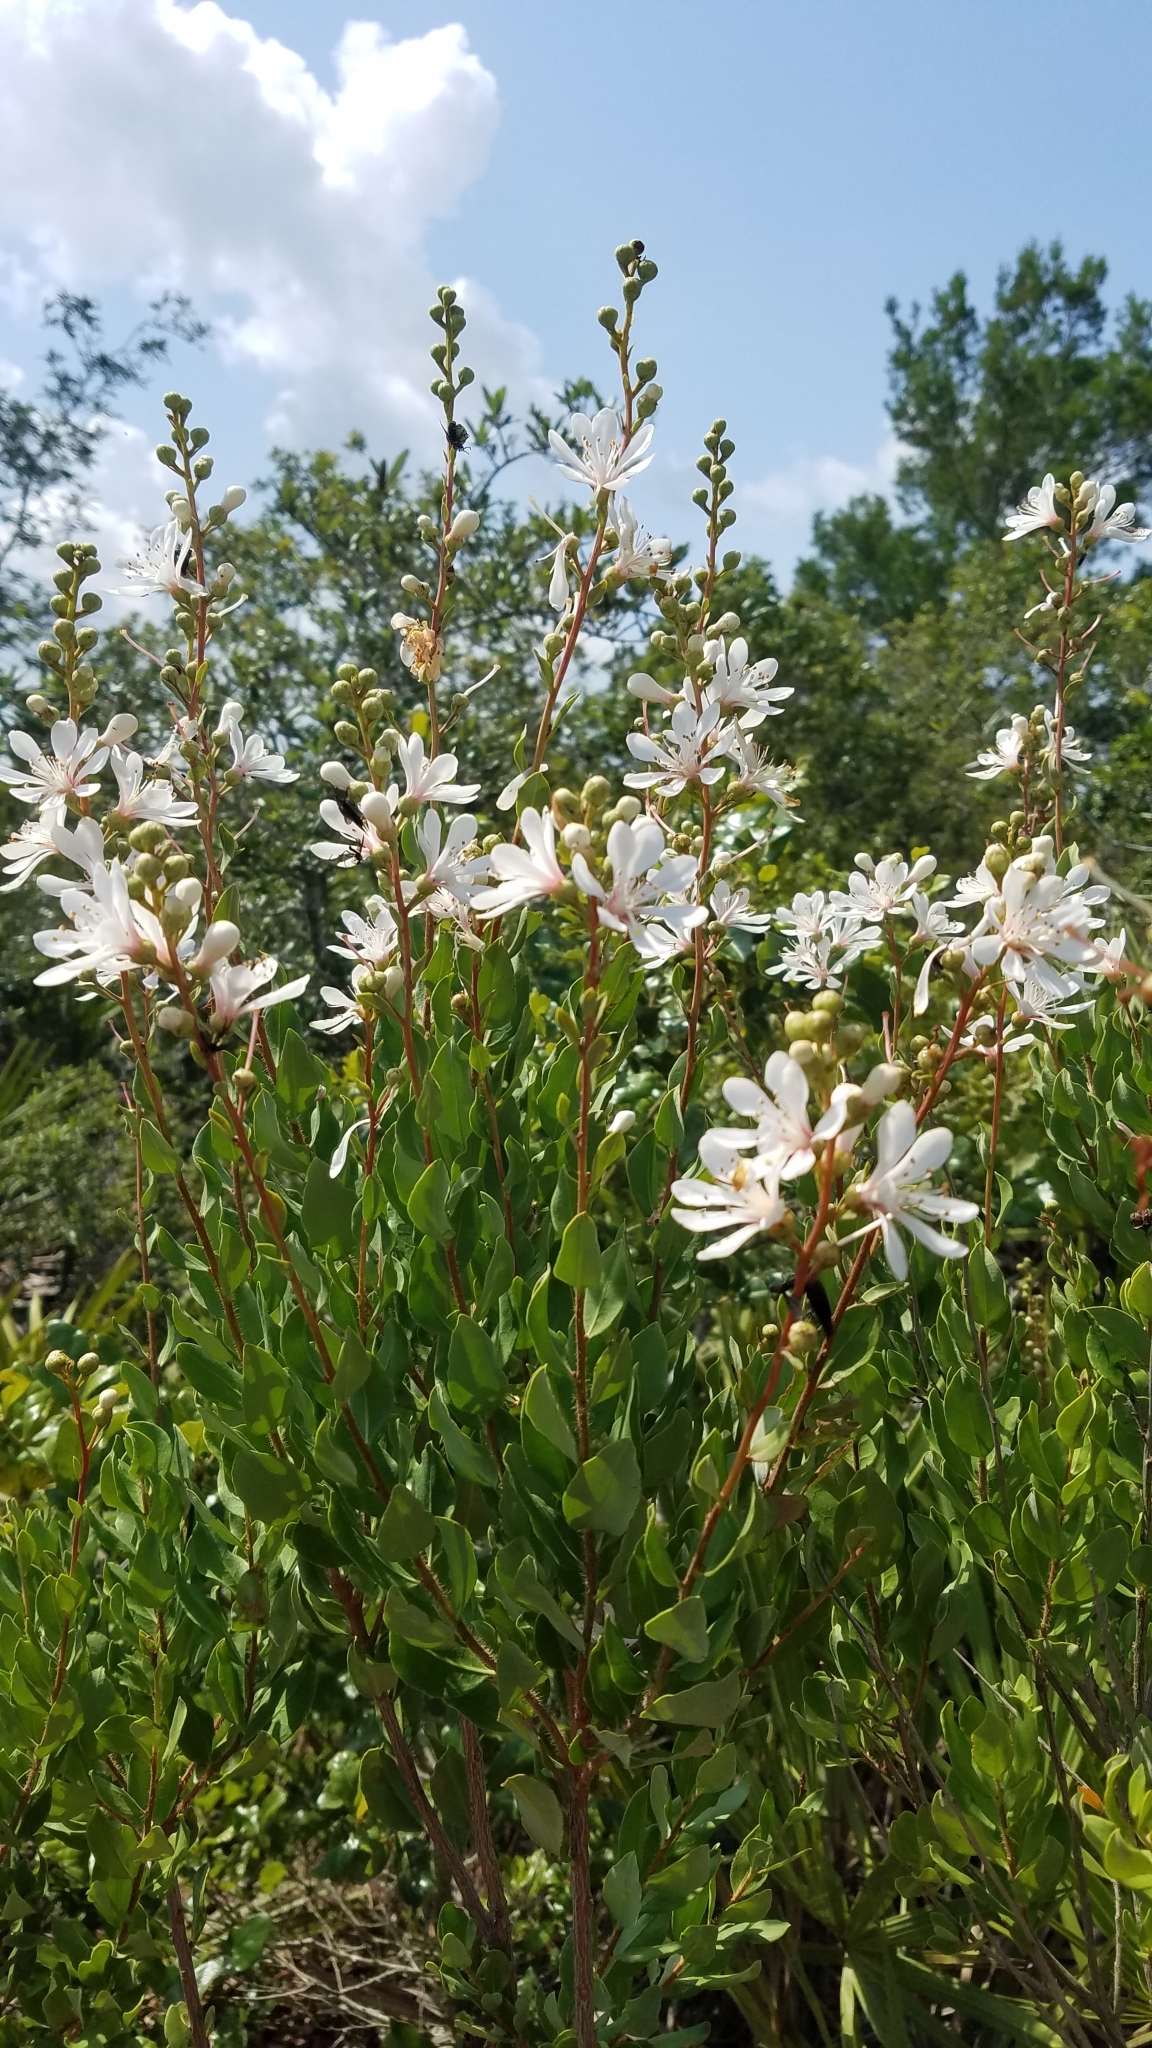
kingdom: Plantae
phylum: Tracheophyta
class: Magnoliopsida
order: Ericales
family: Ericaceae
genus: Bejaria
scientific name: Bejaria racemosa
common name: Tarflower
